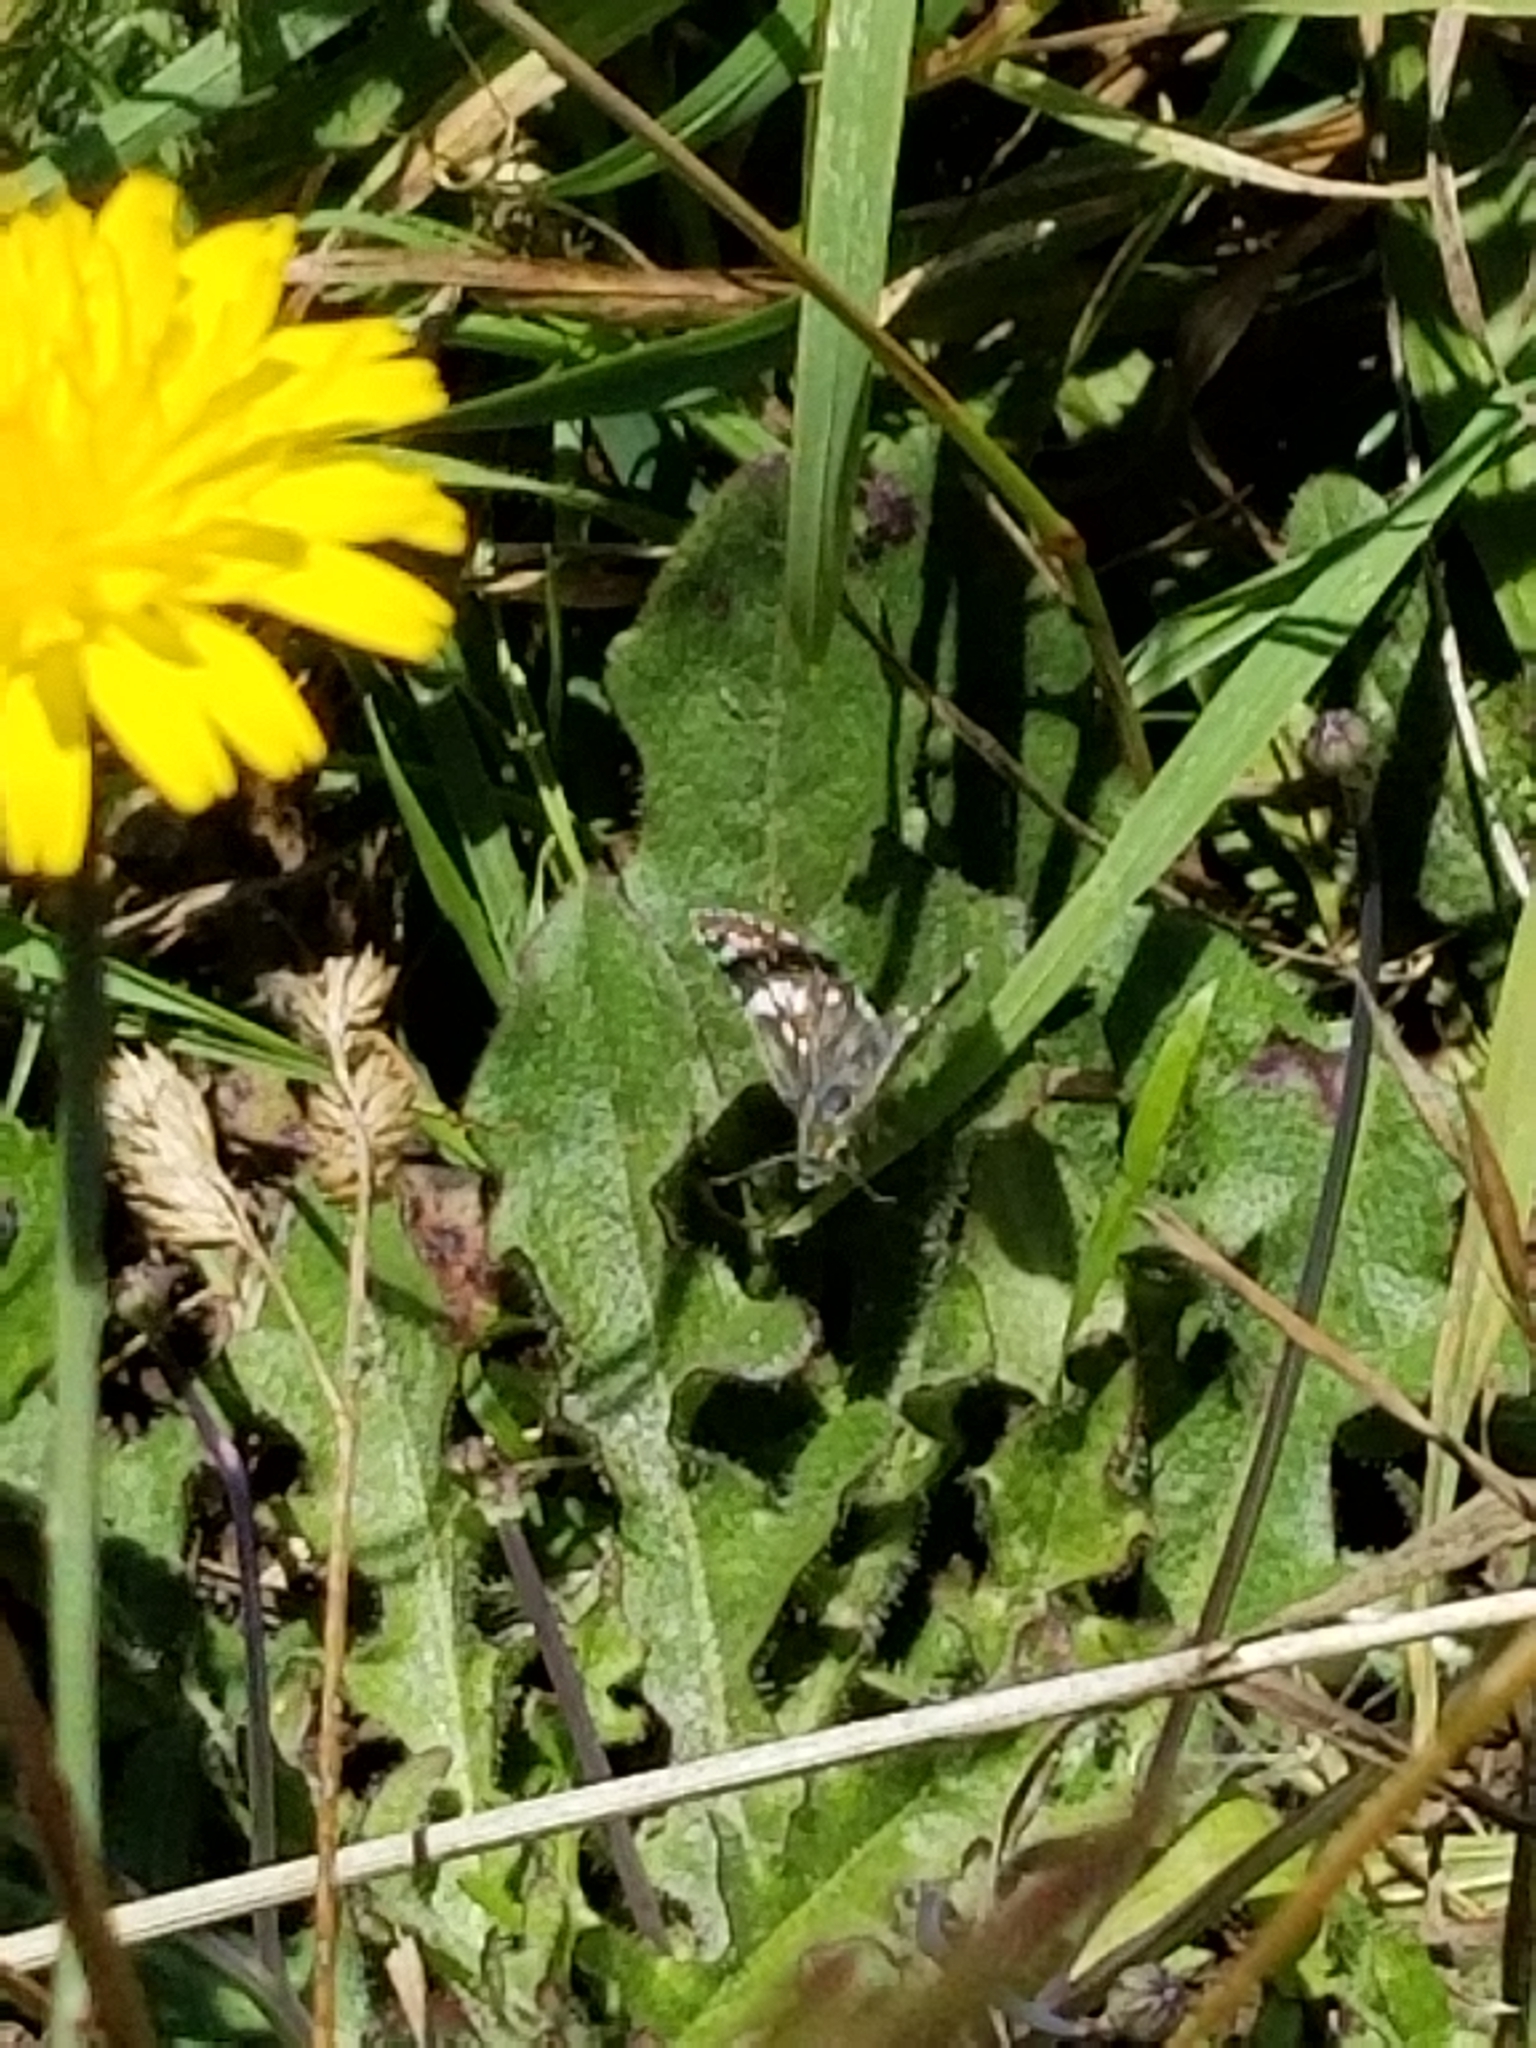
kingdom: Animalia
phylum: Arthropoda
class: Insecta
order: Lepidoptera
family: Hesperiidae
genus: Burnsius
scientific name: Burnsius communis
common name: Common checkered-skipper
